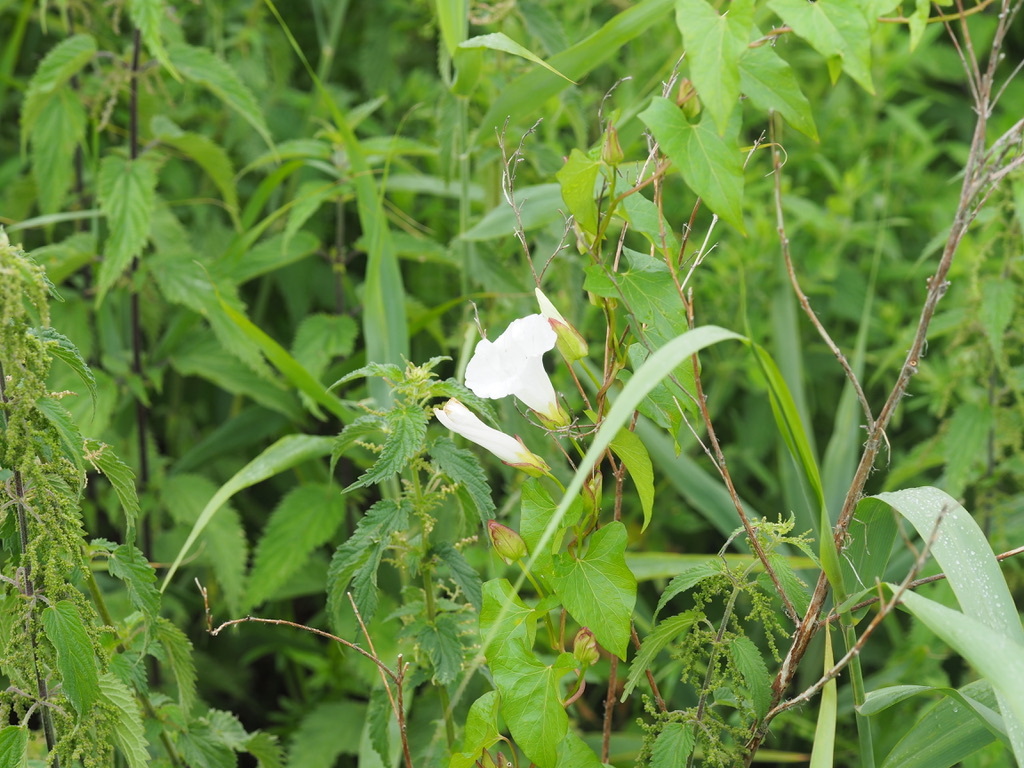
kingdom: Plantae
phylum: Tracheophyta
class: Magnoliopsida
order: Solanales
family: Convolvulaceae
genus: Calystegia
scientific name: Calystegia sepium
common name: Hedge bindweed
